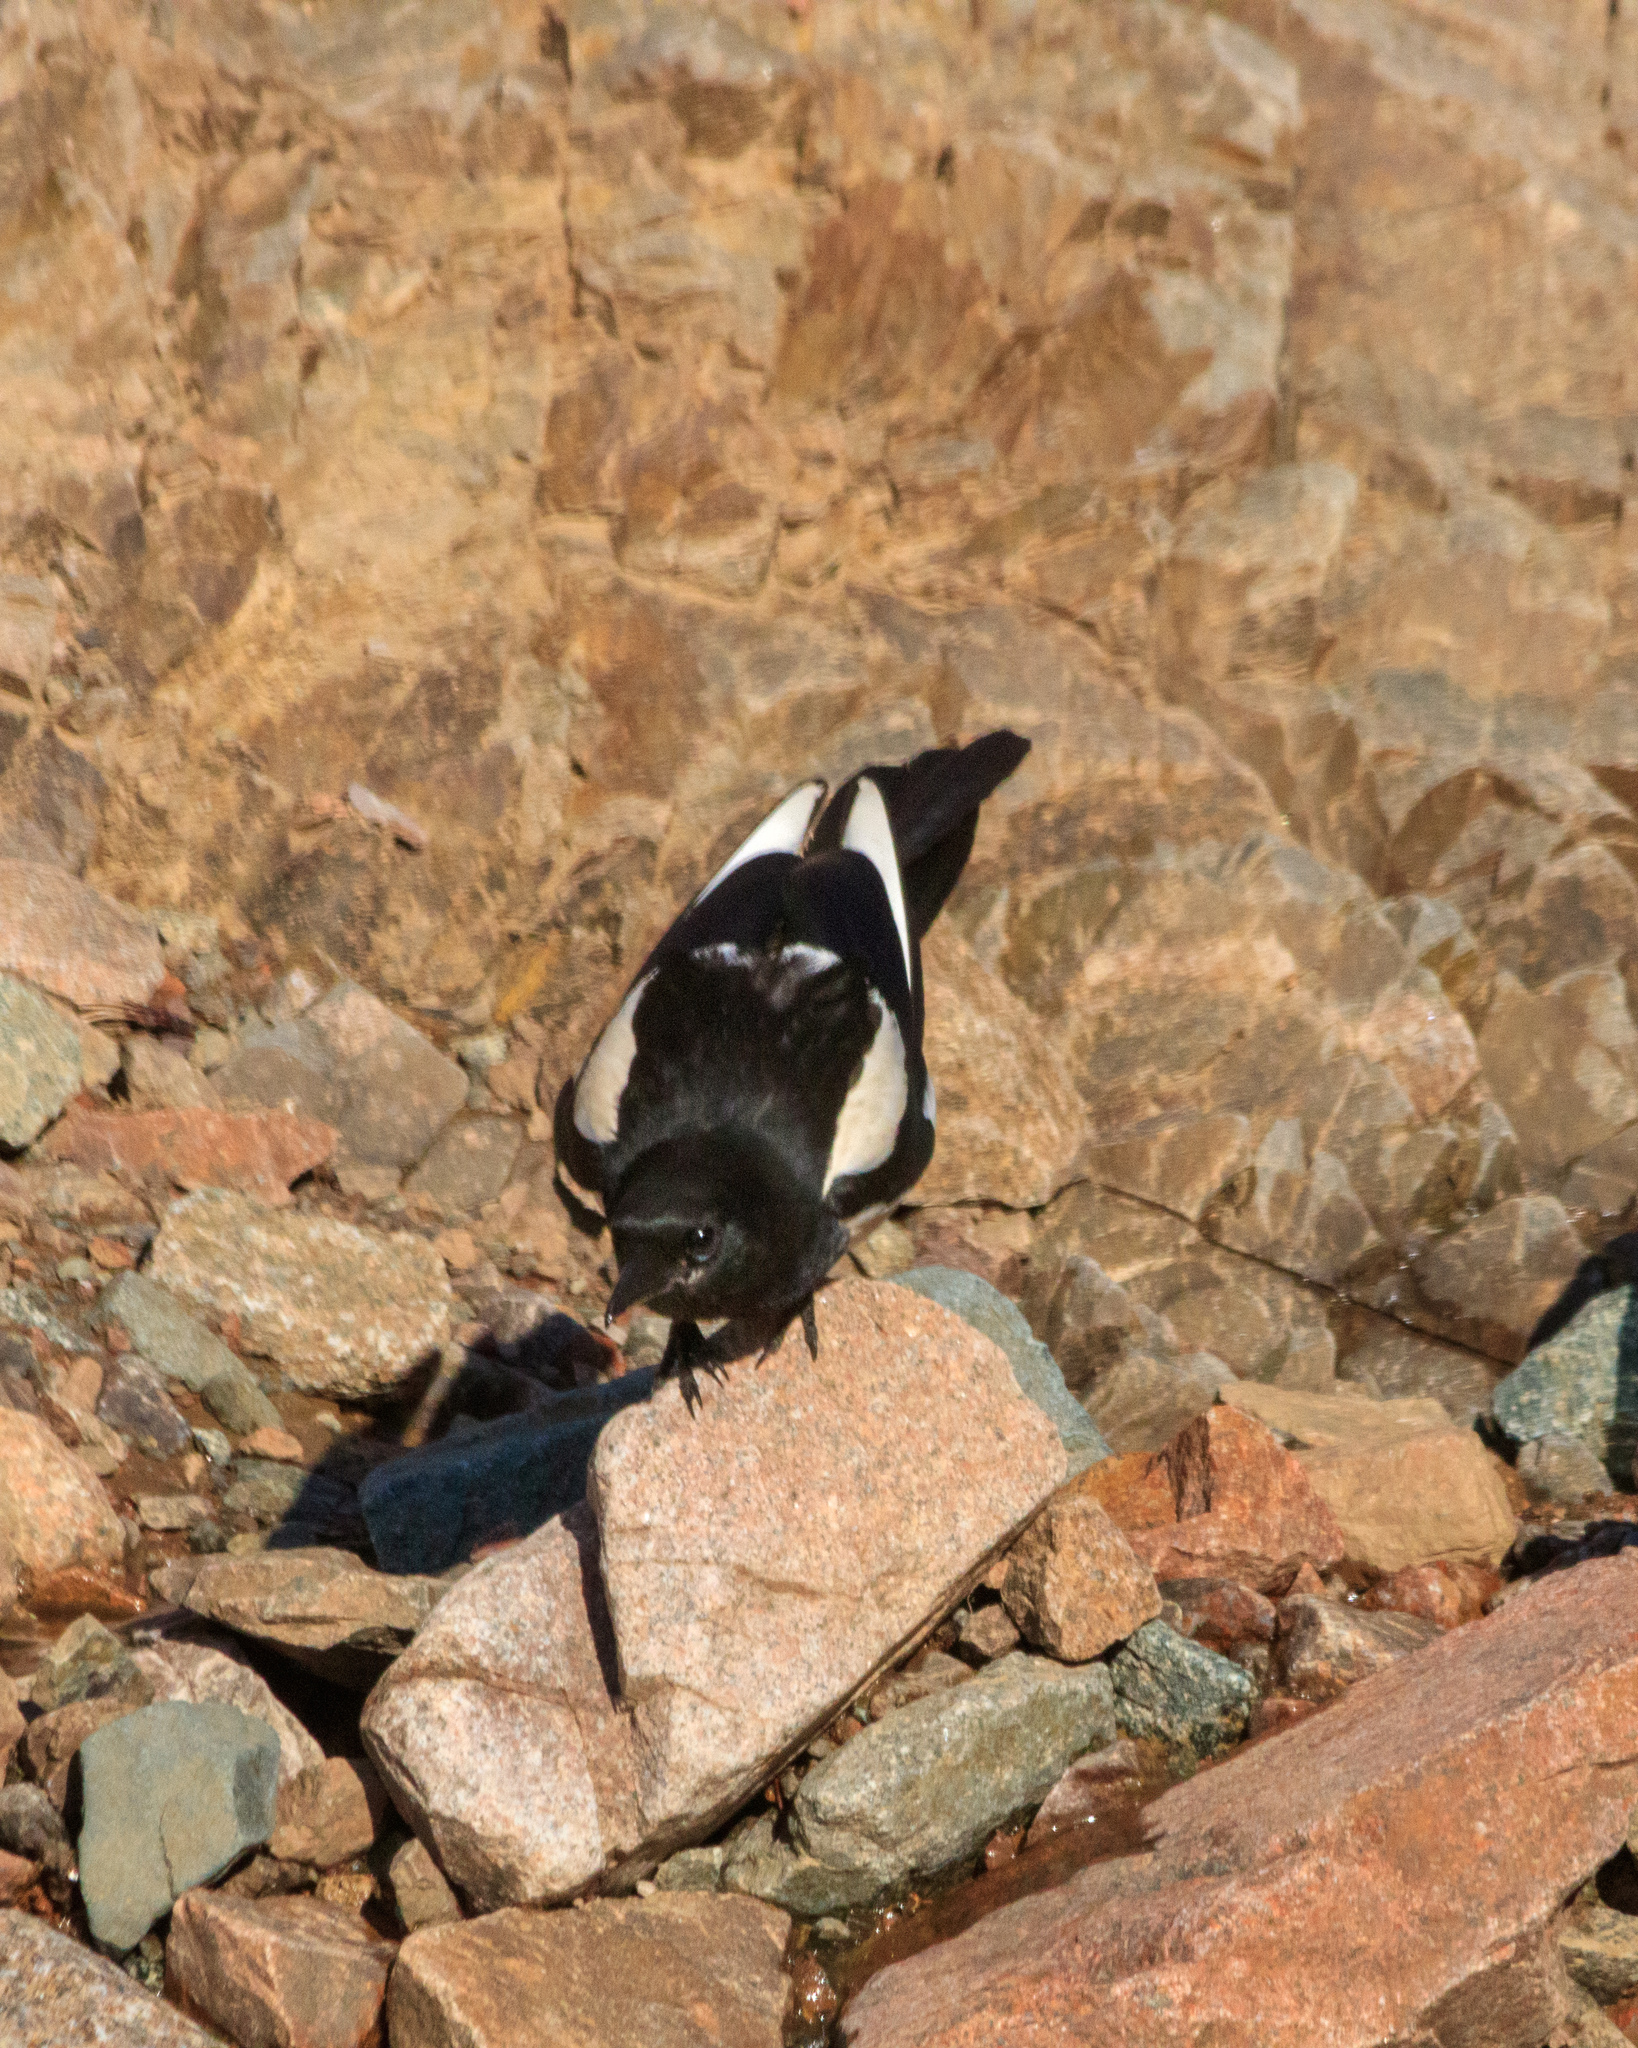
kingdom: Animalia
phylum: Chordata
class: Aves
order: Passeriformes
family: Corvidae
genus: Pica
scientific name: Pica pica
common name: Eurasian magpie
